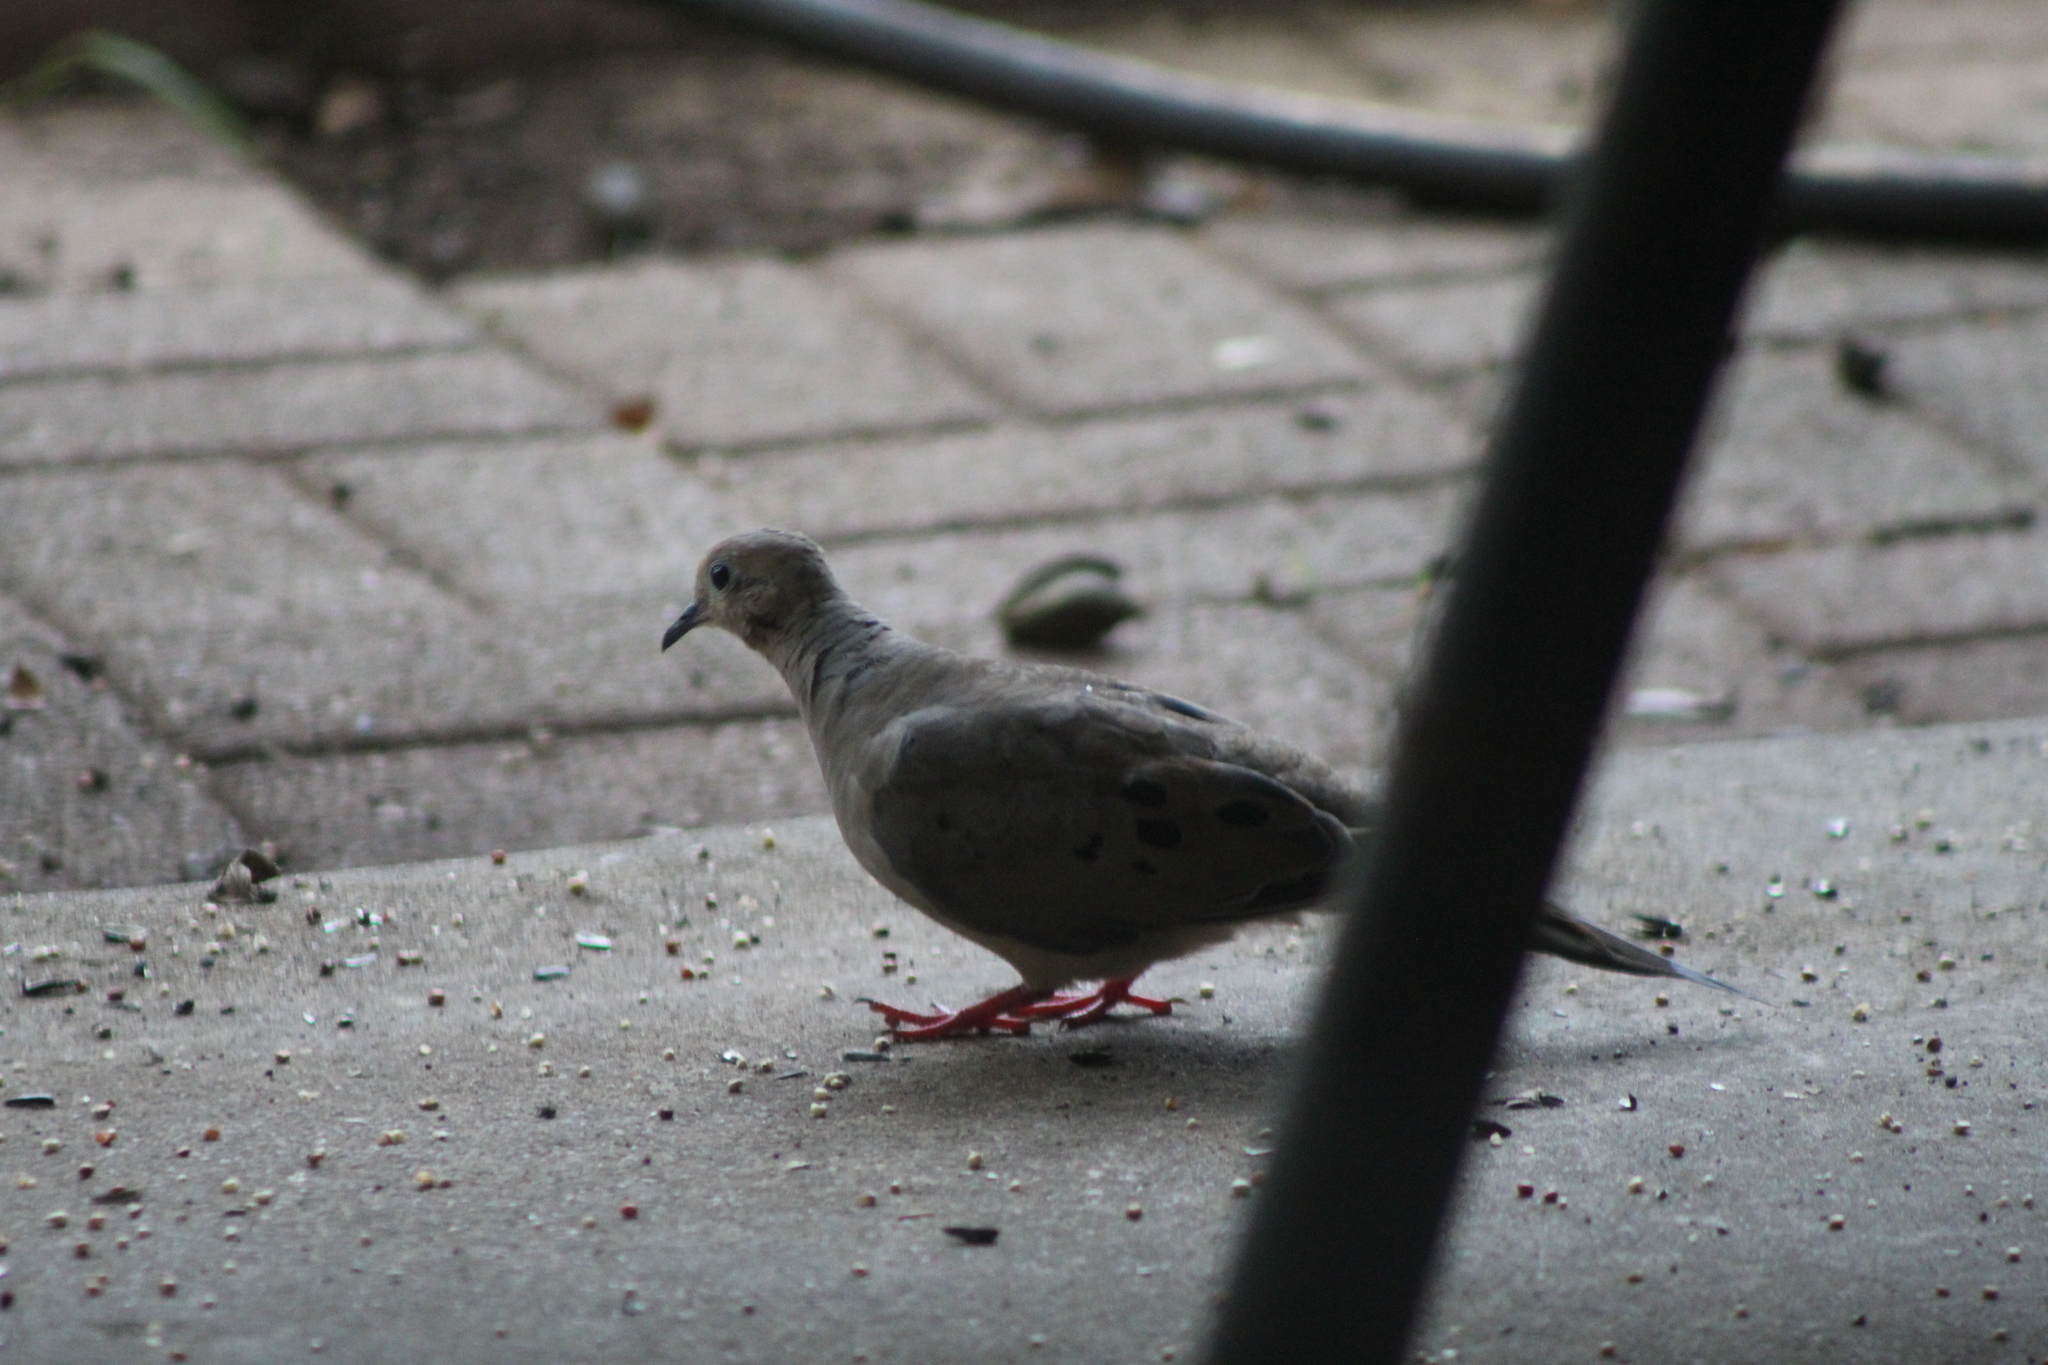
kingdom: Animalia
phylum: Chordata
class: Aves
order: Columbiformes
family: Columbidae
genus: Zenaida
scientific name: Zenaida macroura
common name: Mourning dove
